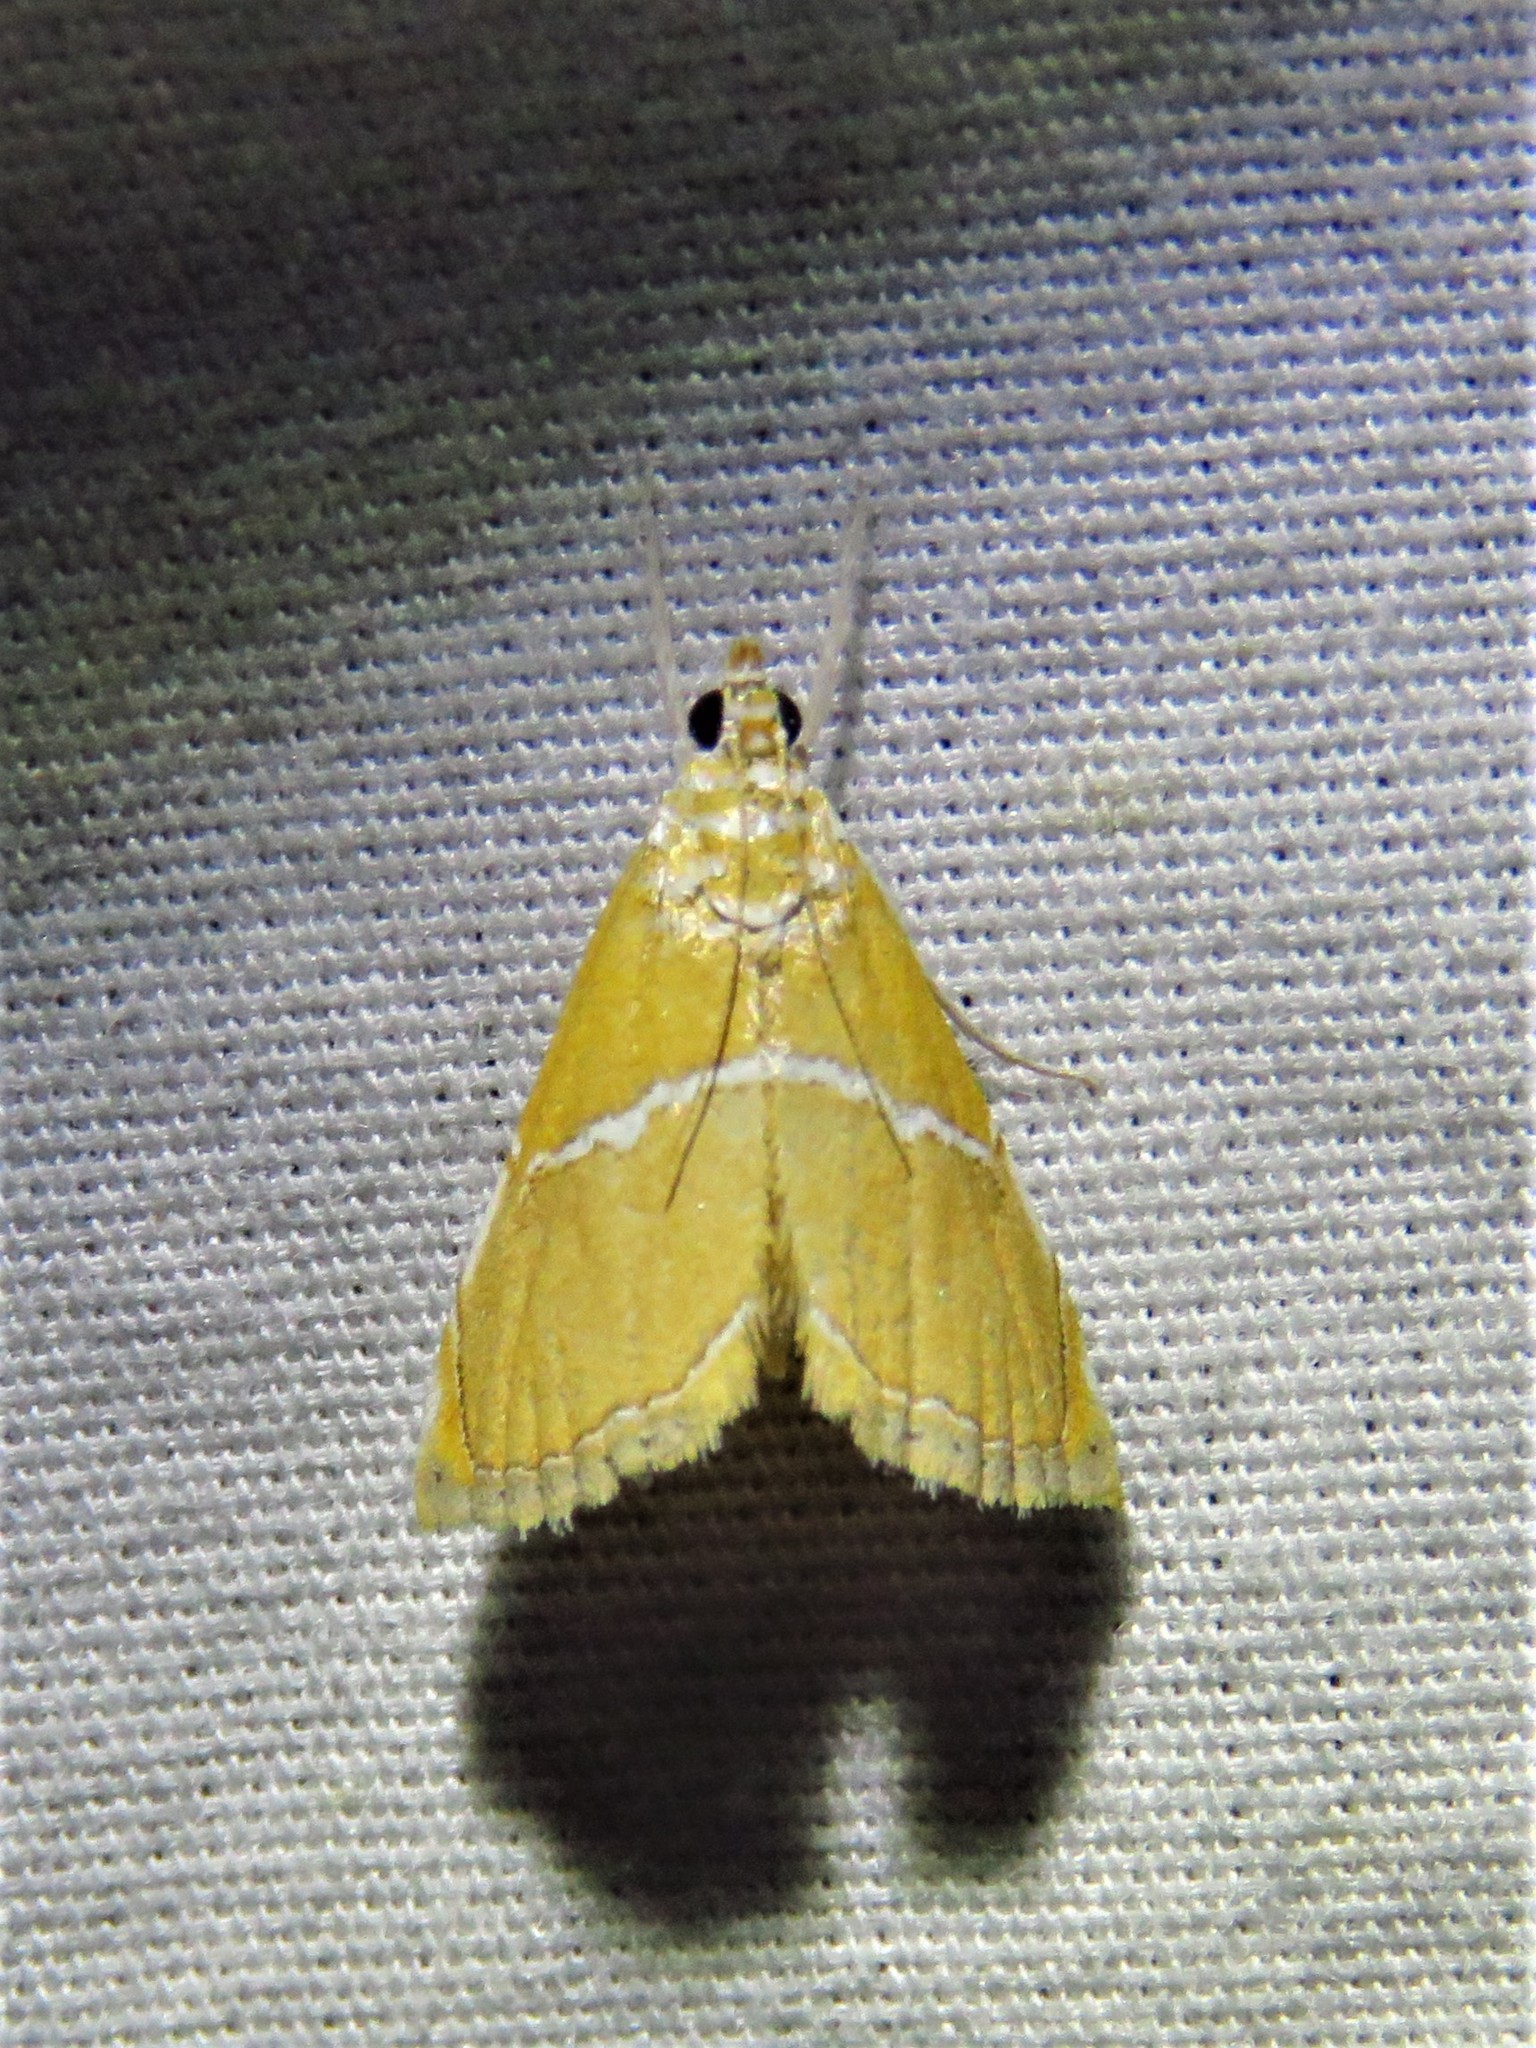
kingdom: Animalia
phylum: Arthropoda
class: Insecta
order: Lepidoptera
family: Crambidae
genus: Abegesta
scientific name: Abegesta remellalis
